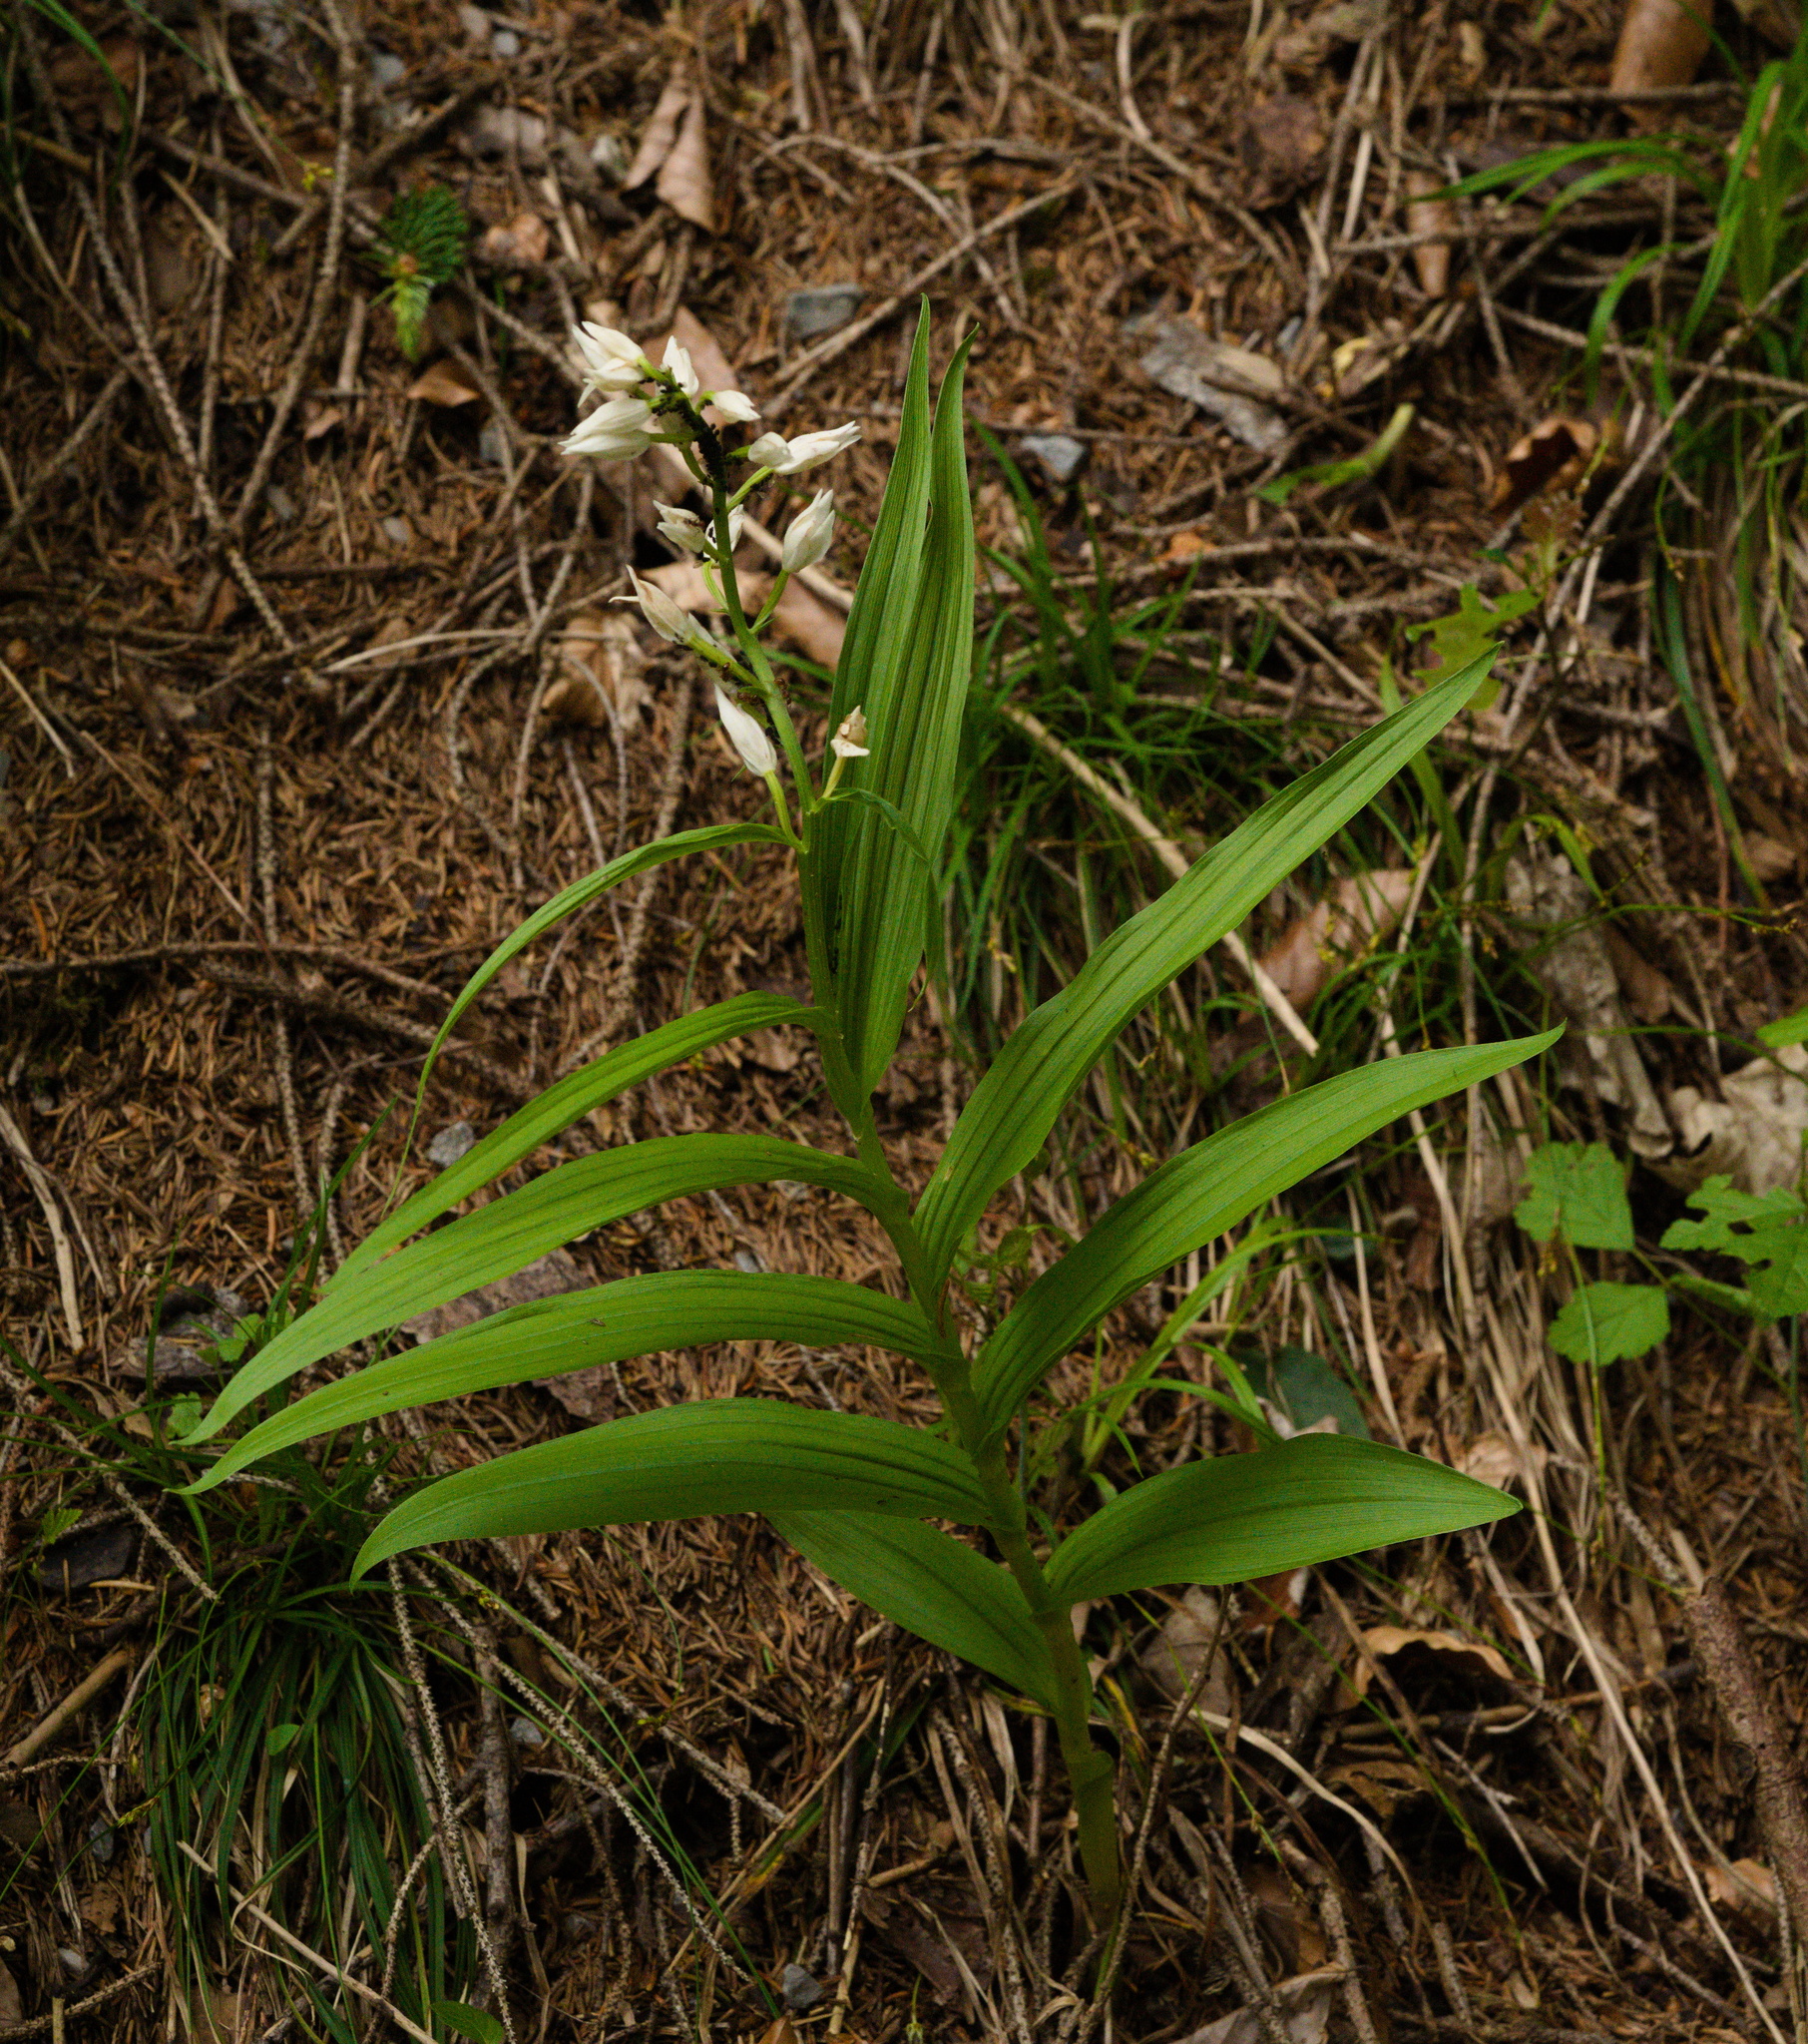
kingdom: Plantae
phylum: Tracheophyta
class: Liliopsida
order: Asparagales
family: Orchidaceae
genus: Cephalanthera
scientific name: Cephalanthera longifolia
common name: Narrow-leaved helleborine
